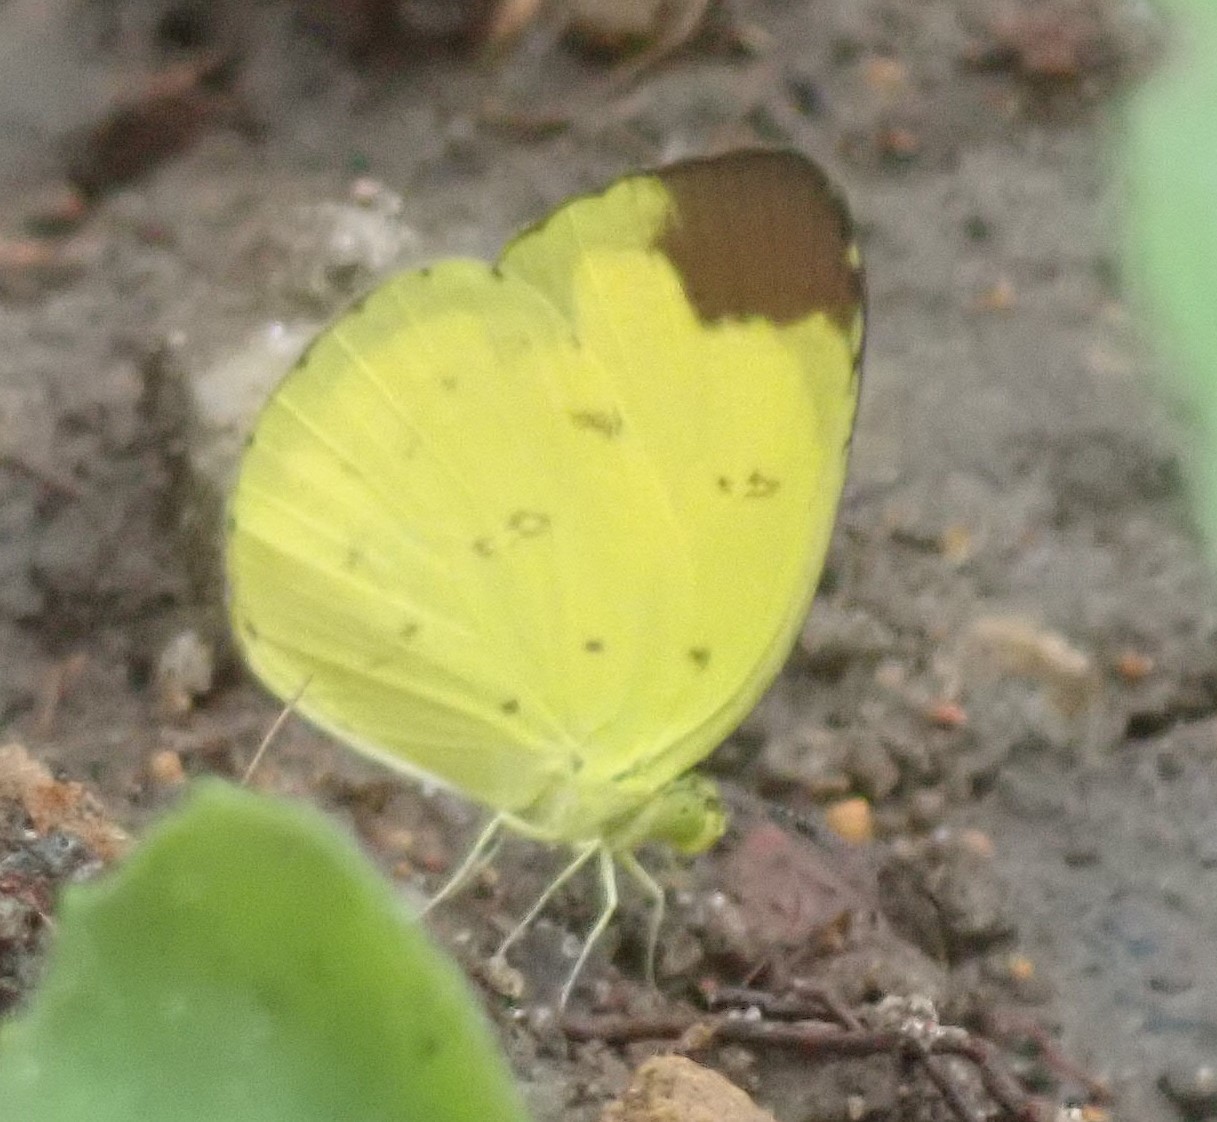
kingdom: Animalia
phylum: Arthropoda
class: Insecta
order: Lepidoptera
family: Pieridae
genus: Eurema
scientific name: Eurema sari
